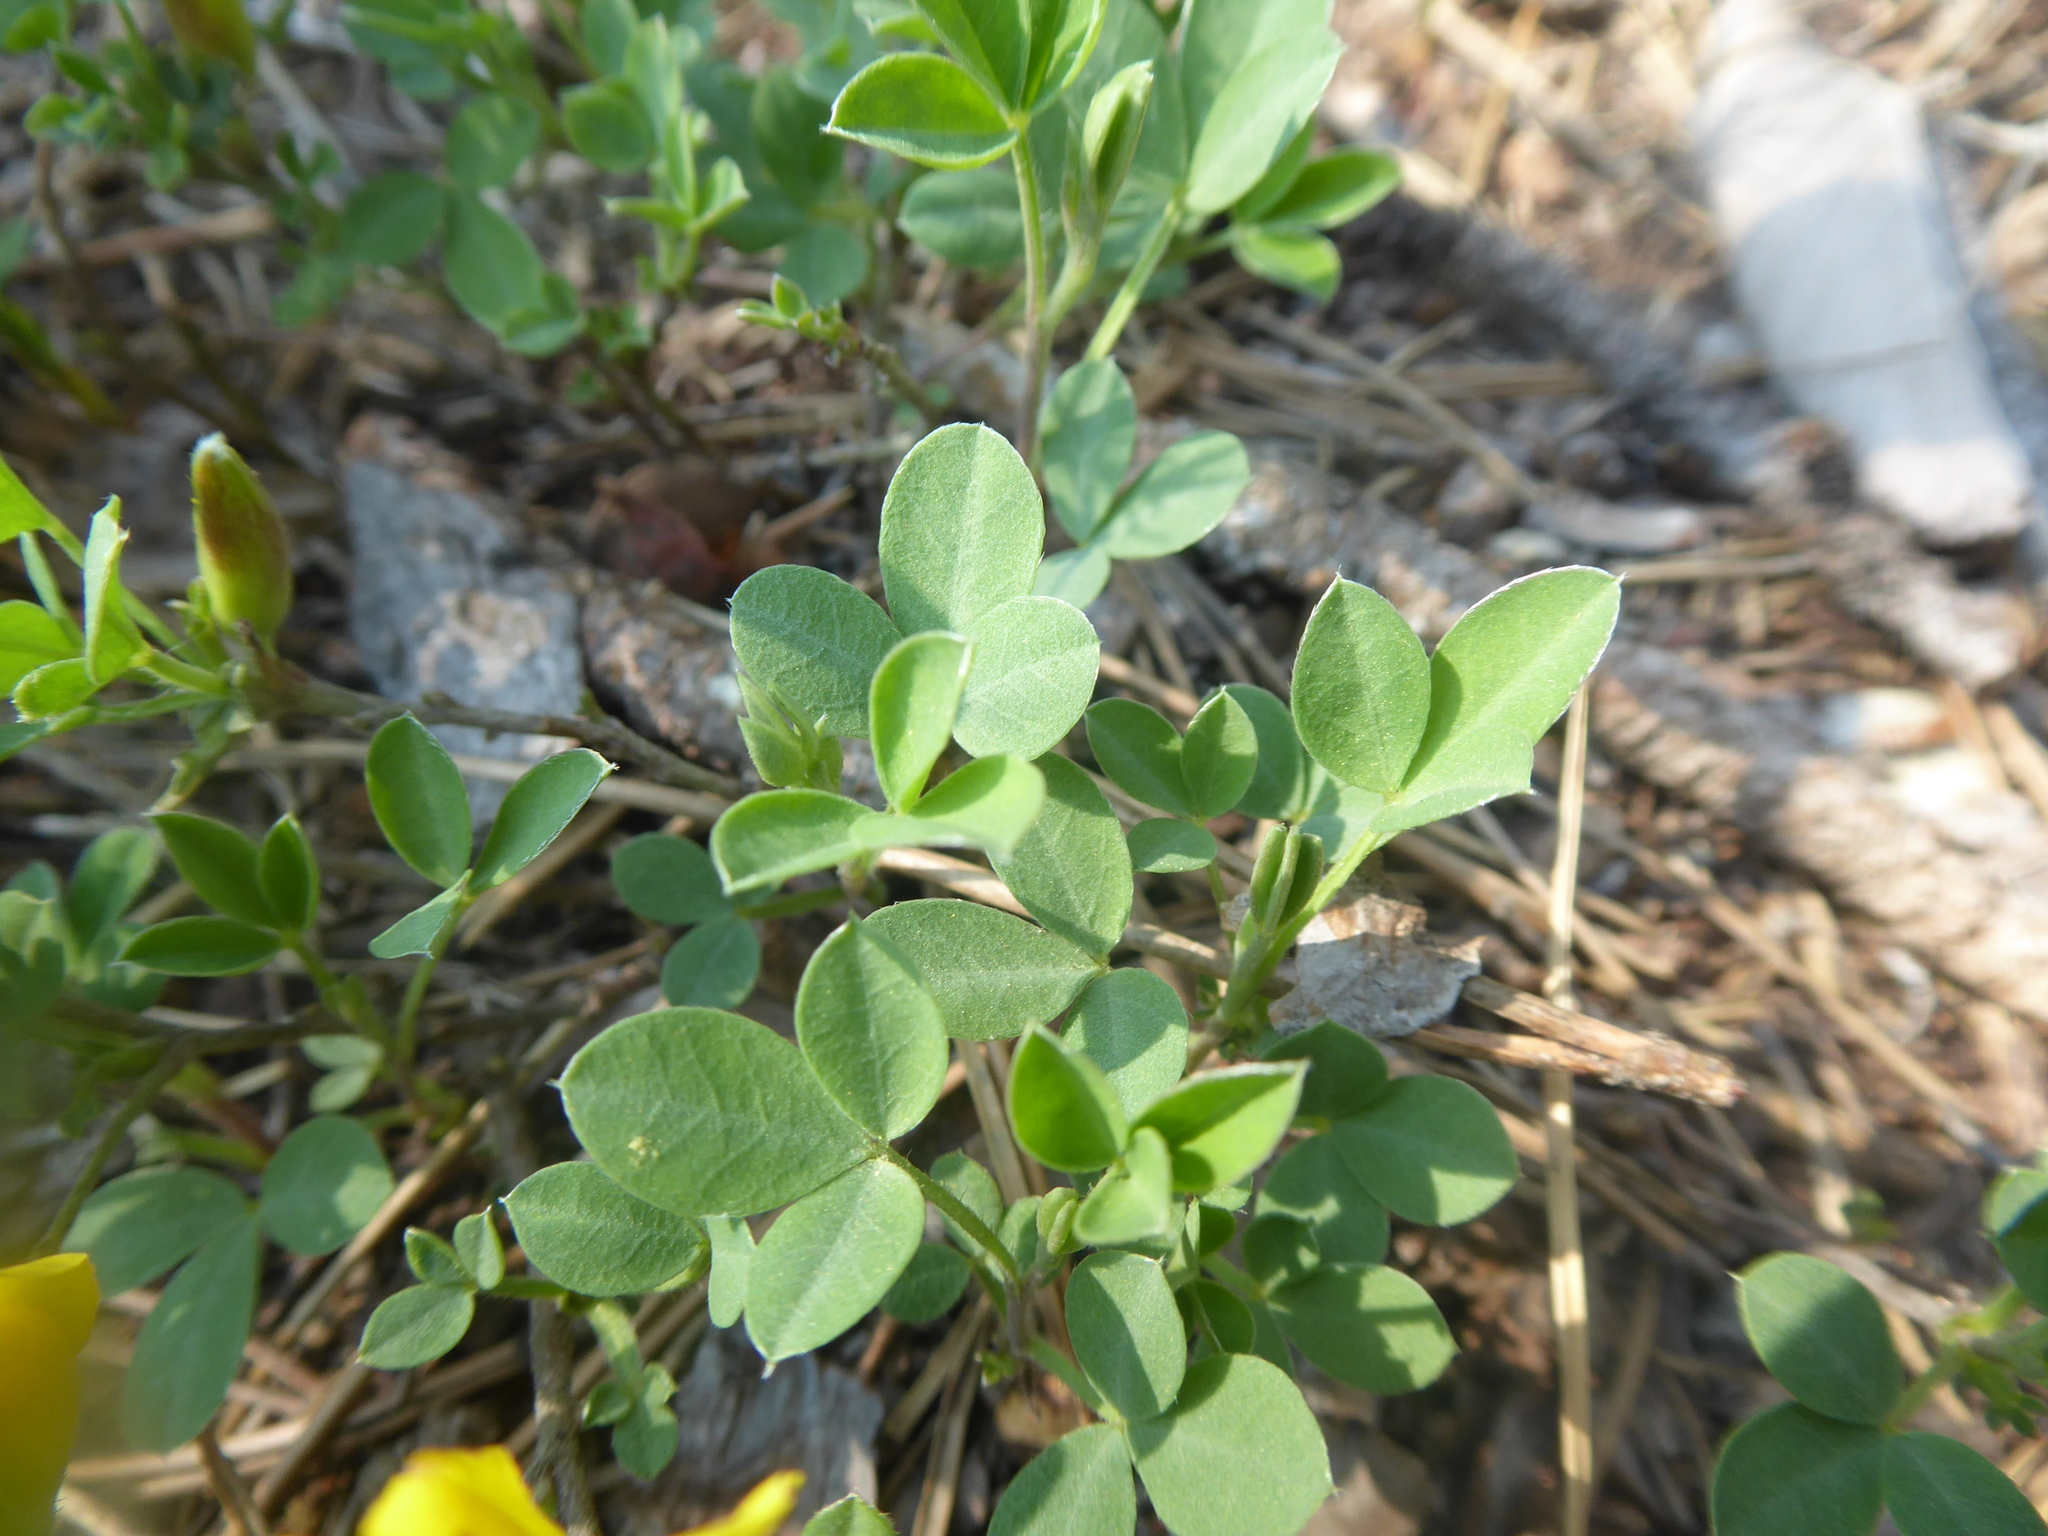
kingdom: Plantae
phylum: Tracheophyta
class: Magnoliopsida
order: Fabales
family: Fabaceae
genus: Chamaecytisus
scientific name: Chamaecytisus ratisbonensis
